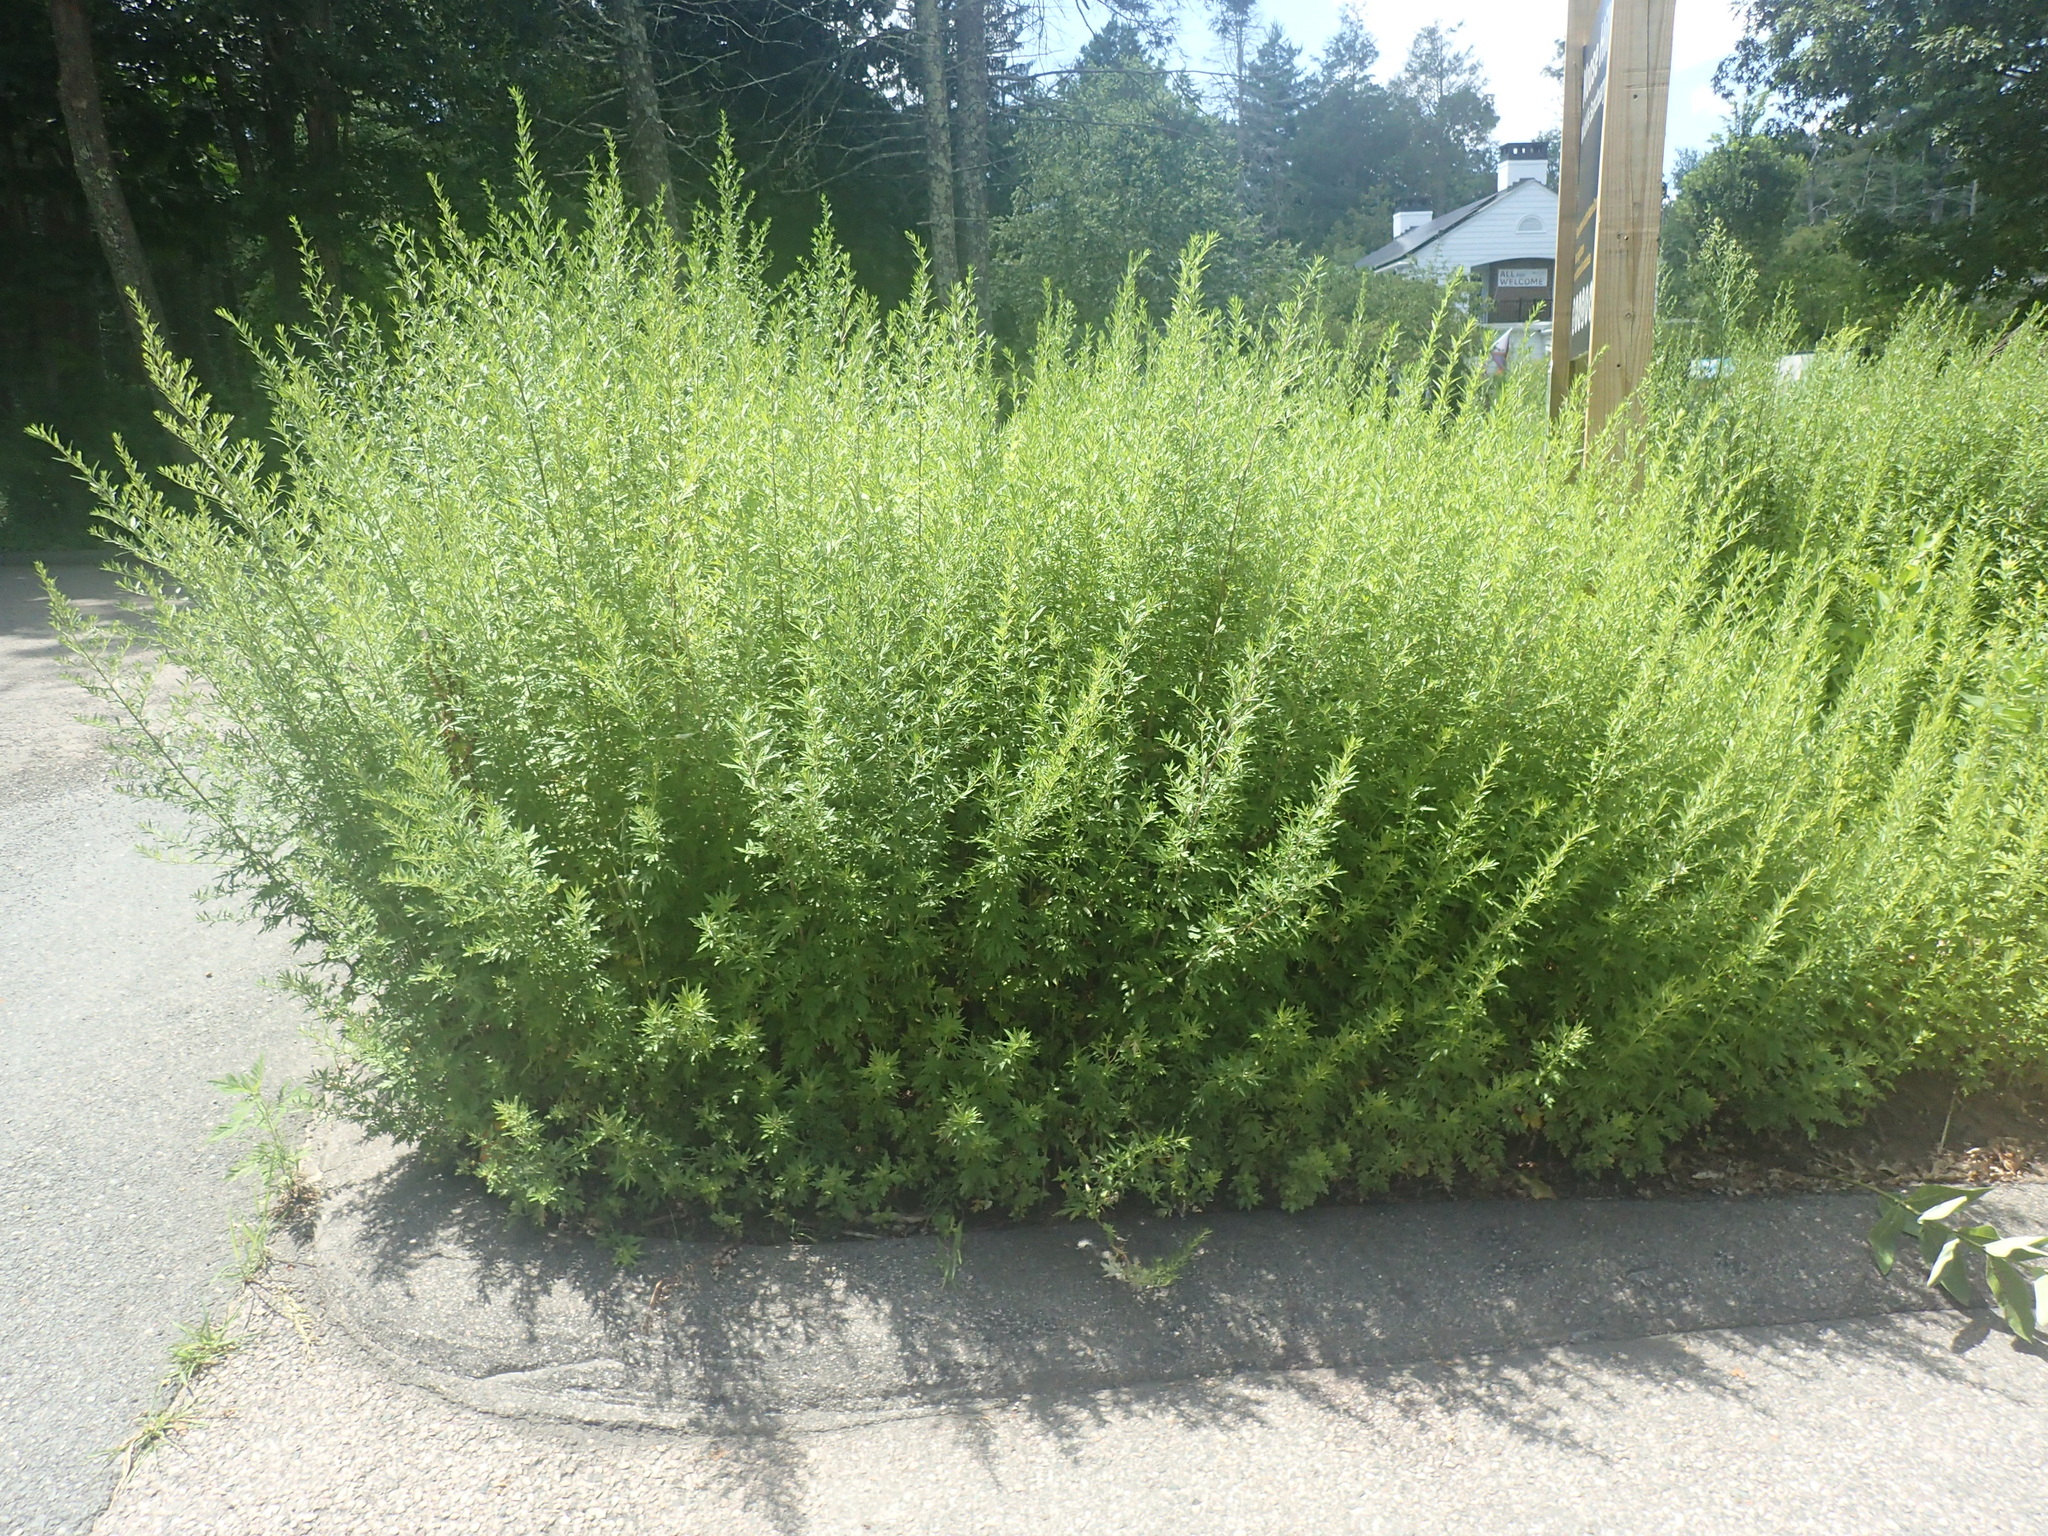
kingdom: Plantae
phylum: Tracheophyta
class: Magnoliopsida
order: Asterales
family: Asteraceae
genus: Artemisia
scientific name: Artemisia vulgaris
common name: Mugwort
